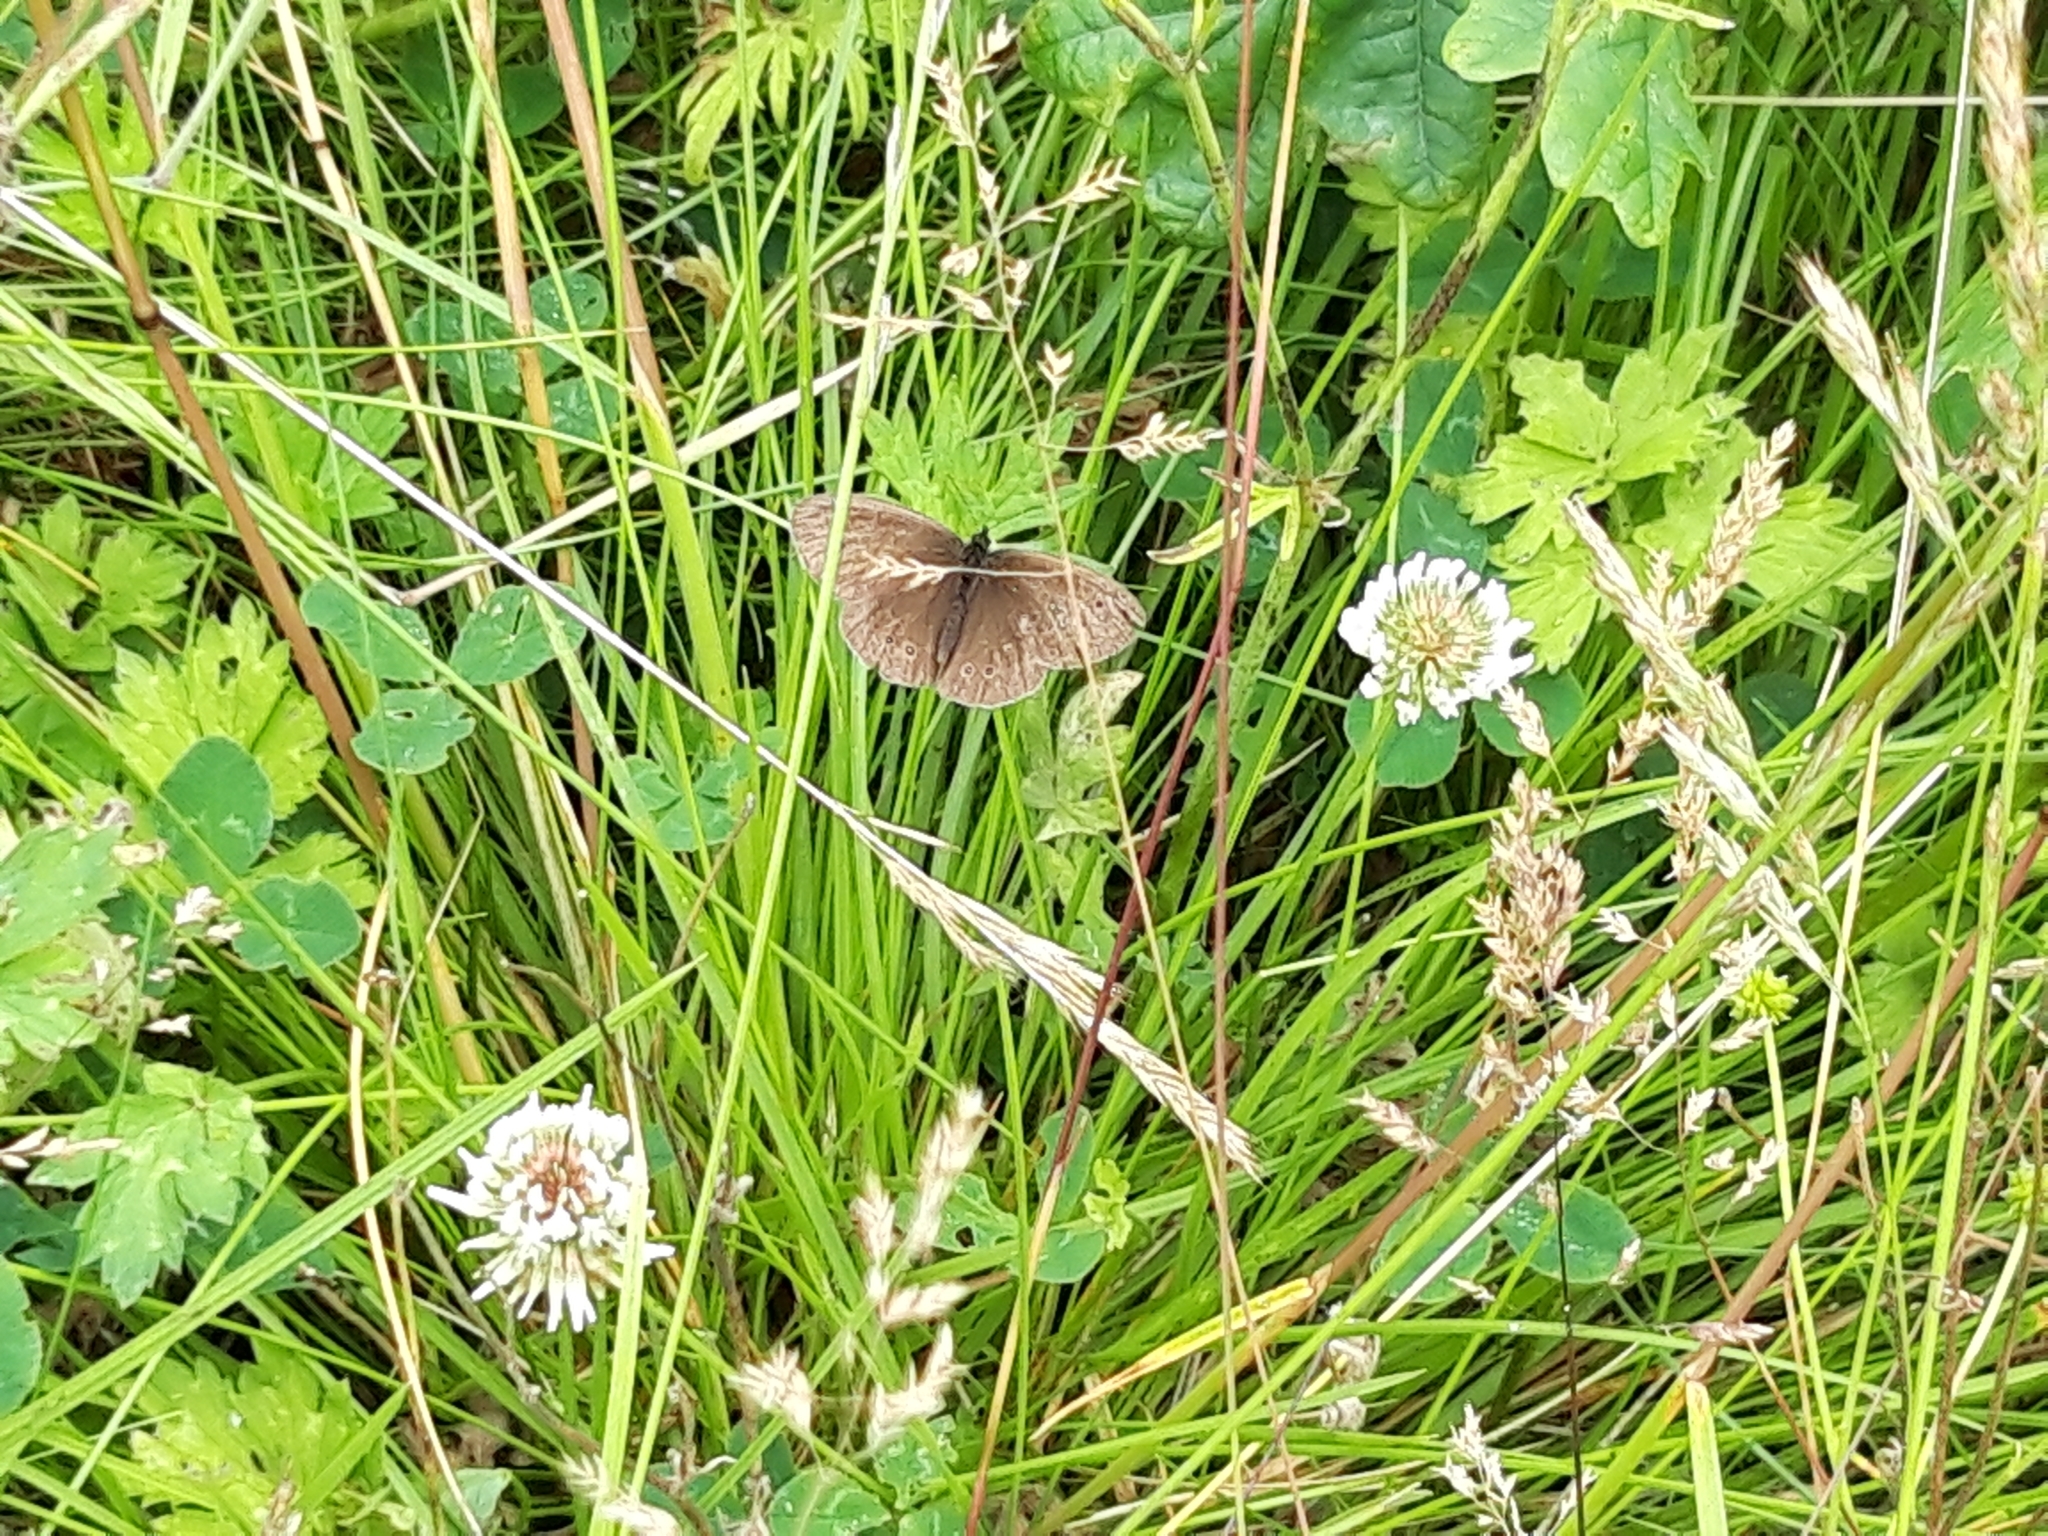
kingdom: Animalia
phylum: Arthropoda
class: Insecta
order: Lepidoptera
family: Nymphalidae
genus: Aphantopus
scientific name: Aphantopus hyperantus
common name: Ringlet
